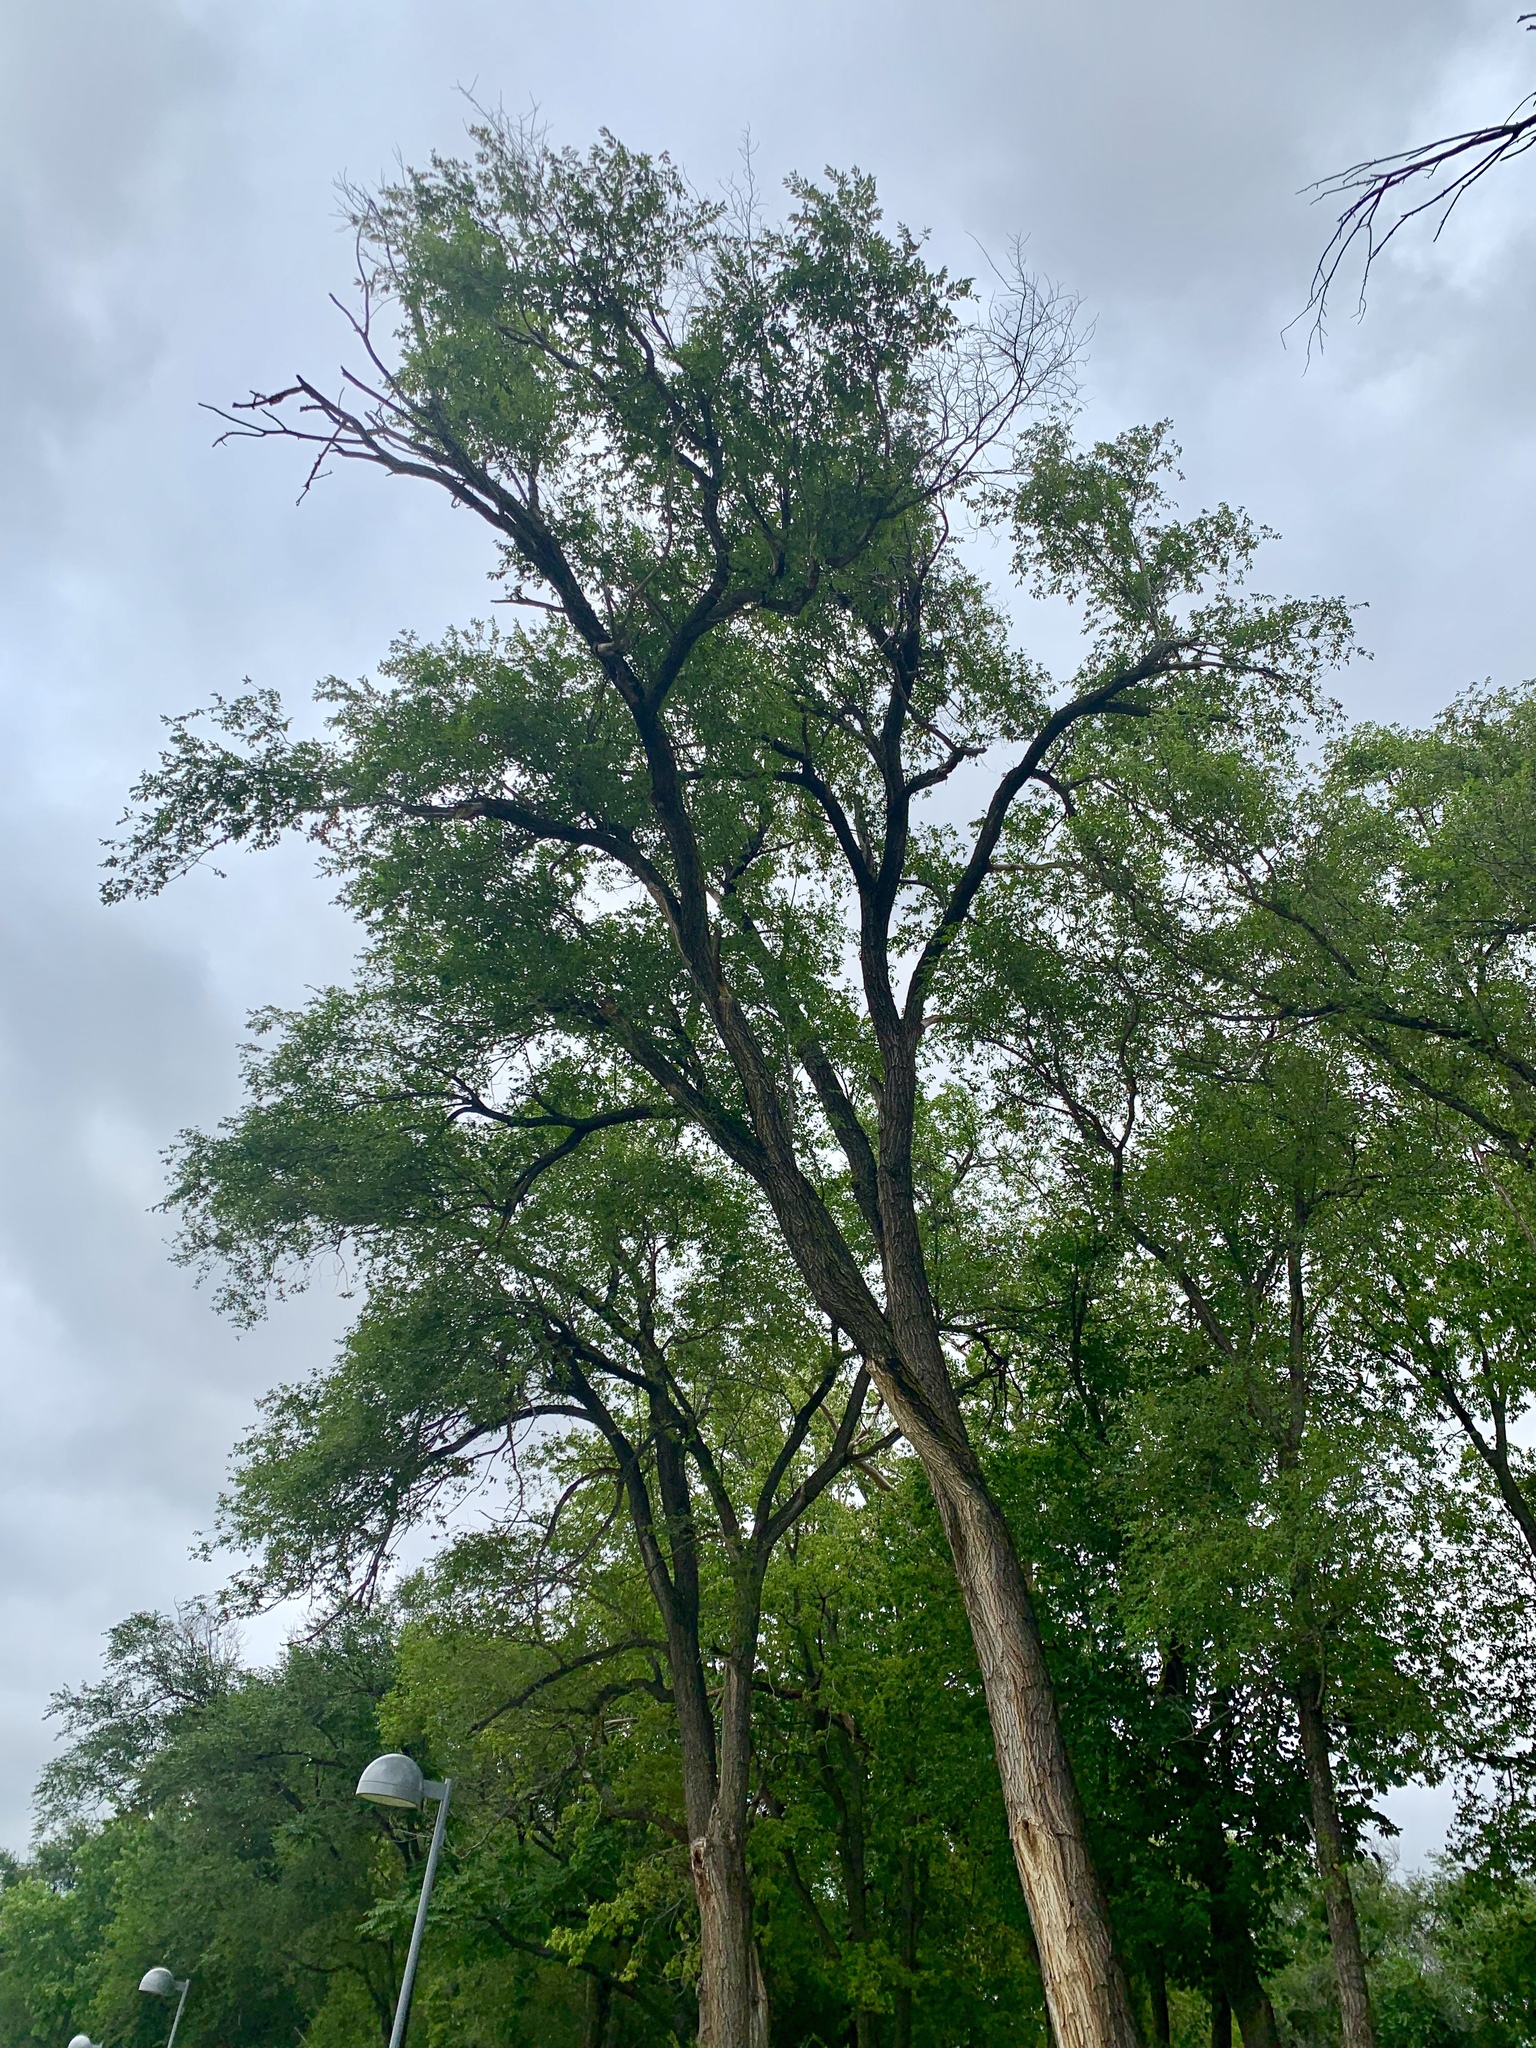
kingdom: Plantae
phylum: Tracheophyta
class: Magnoliopsida
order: Rosales
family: Ulmaceae
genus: Ulmus
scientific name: Ulmus pumila
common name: Siberian elm
